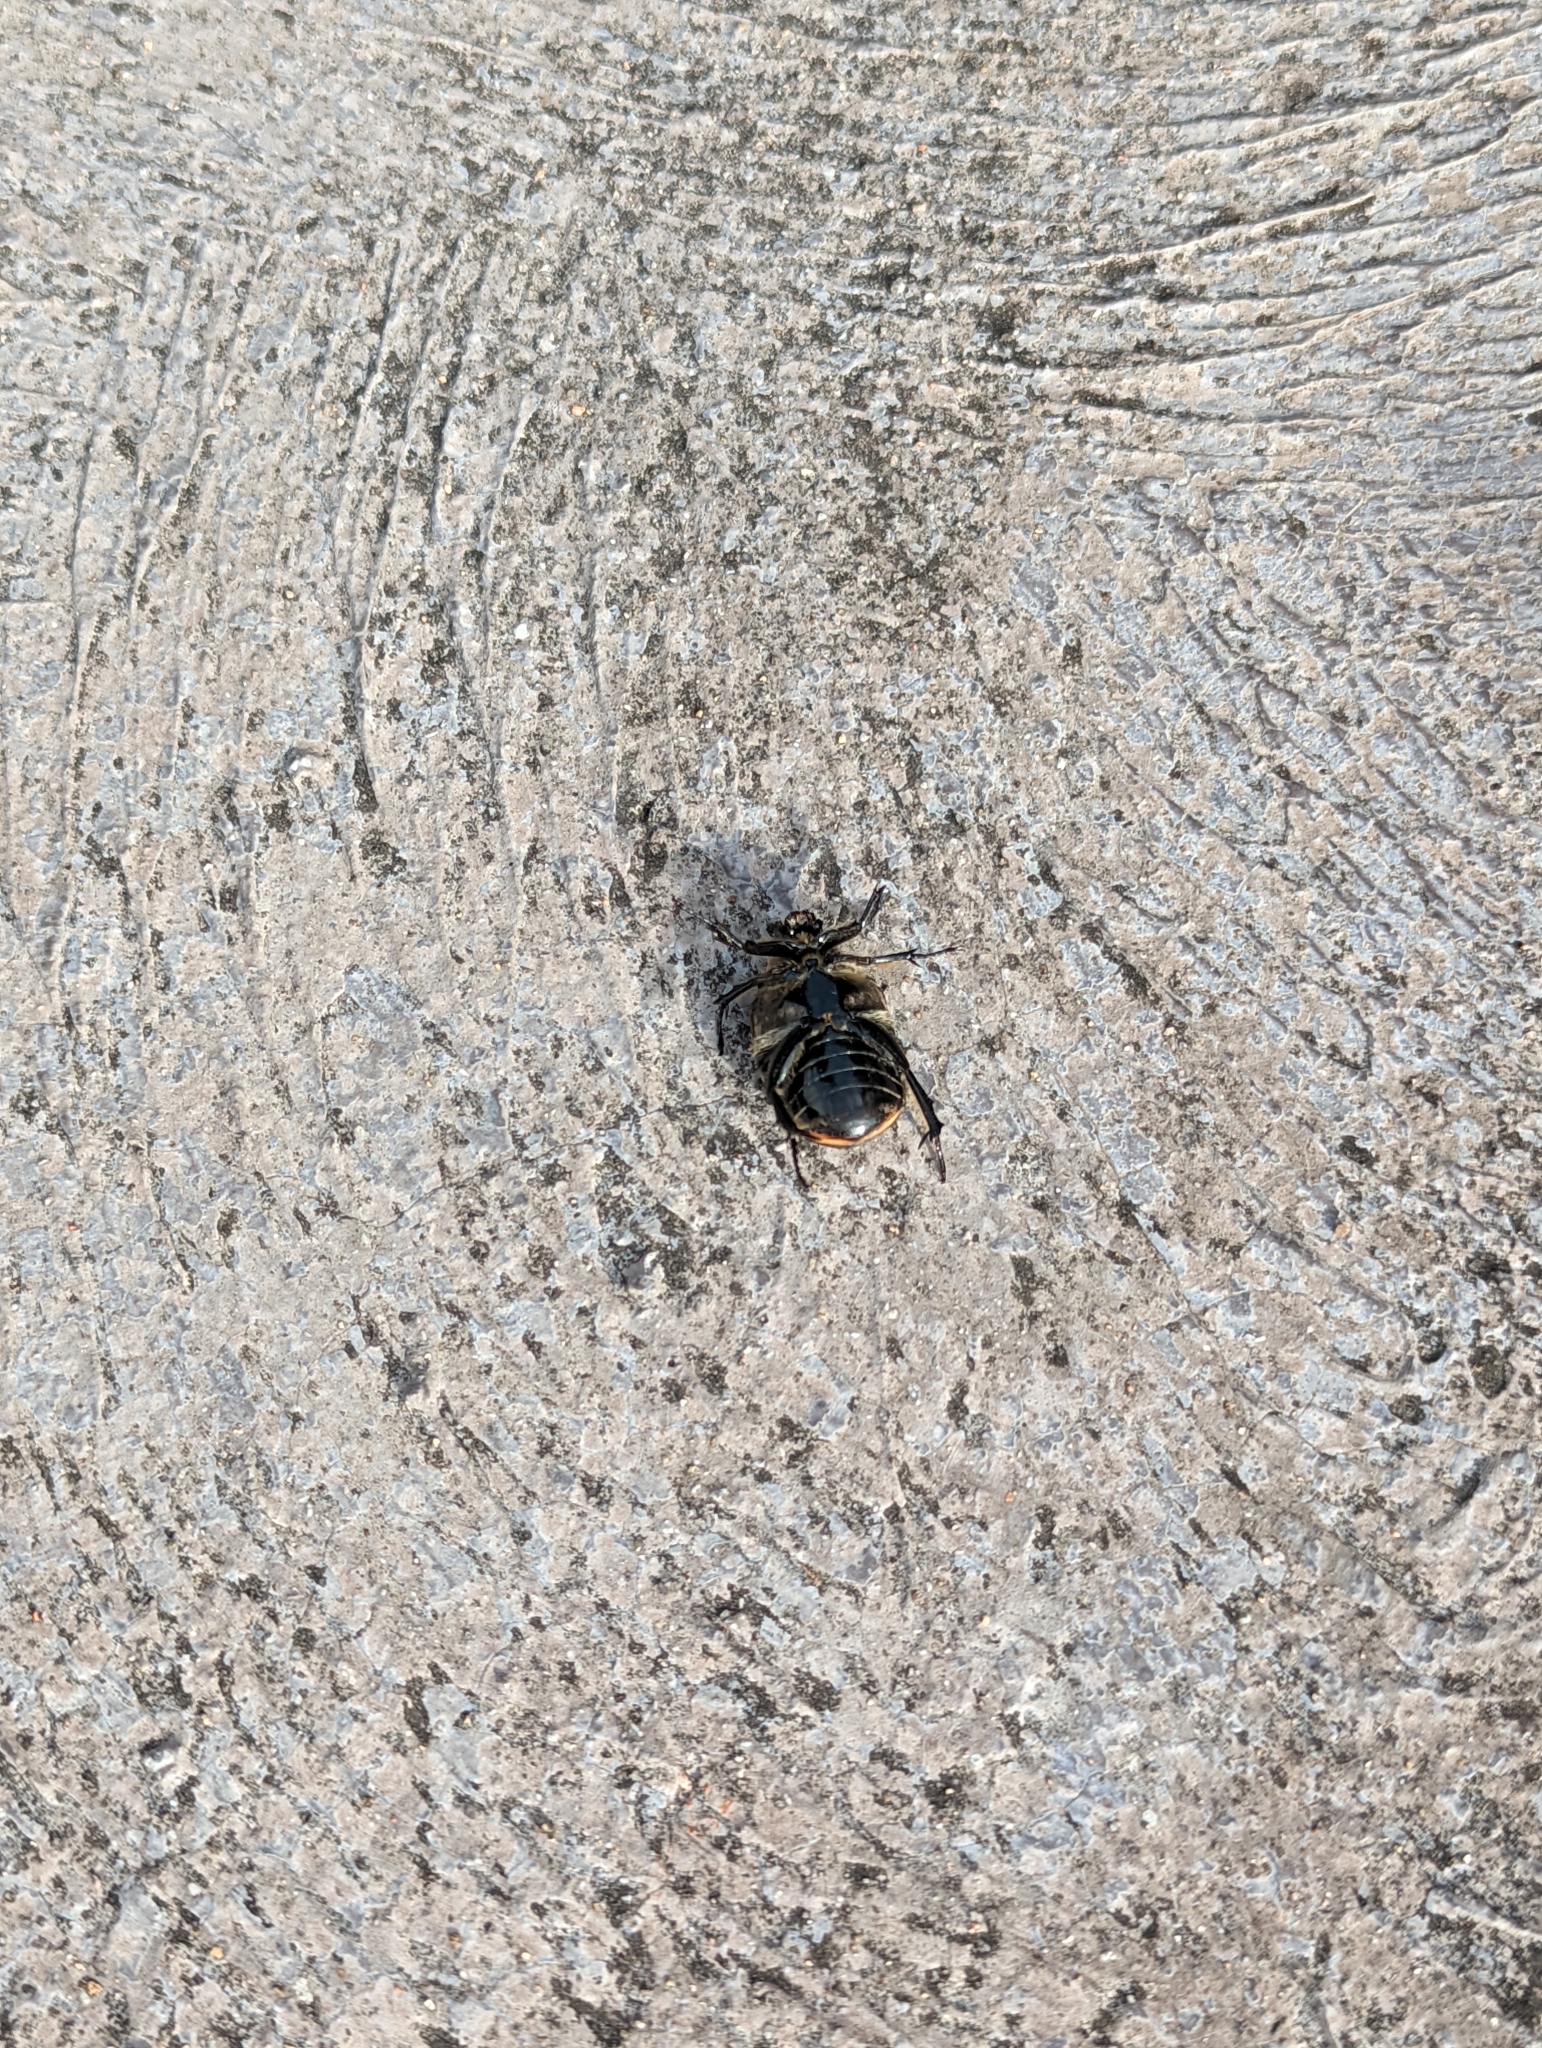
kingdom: Animalia
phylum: Arthropoda
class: Insecta
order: Coleoptera
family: Scarabaeidae
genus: Chondropyga
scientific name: Chondropyga dorsalis
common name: Cowboy beetle
